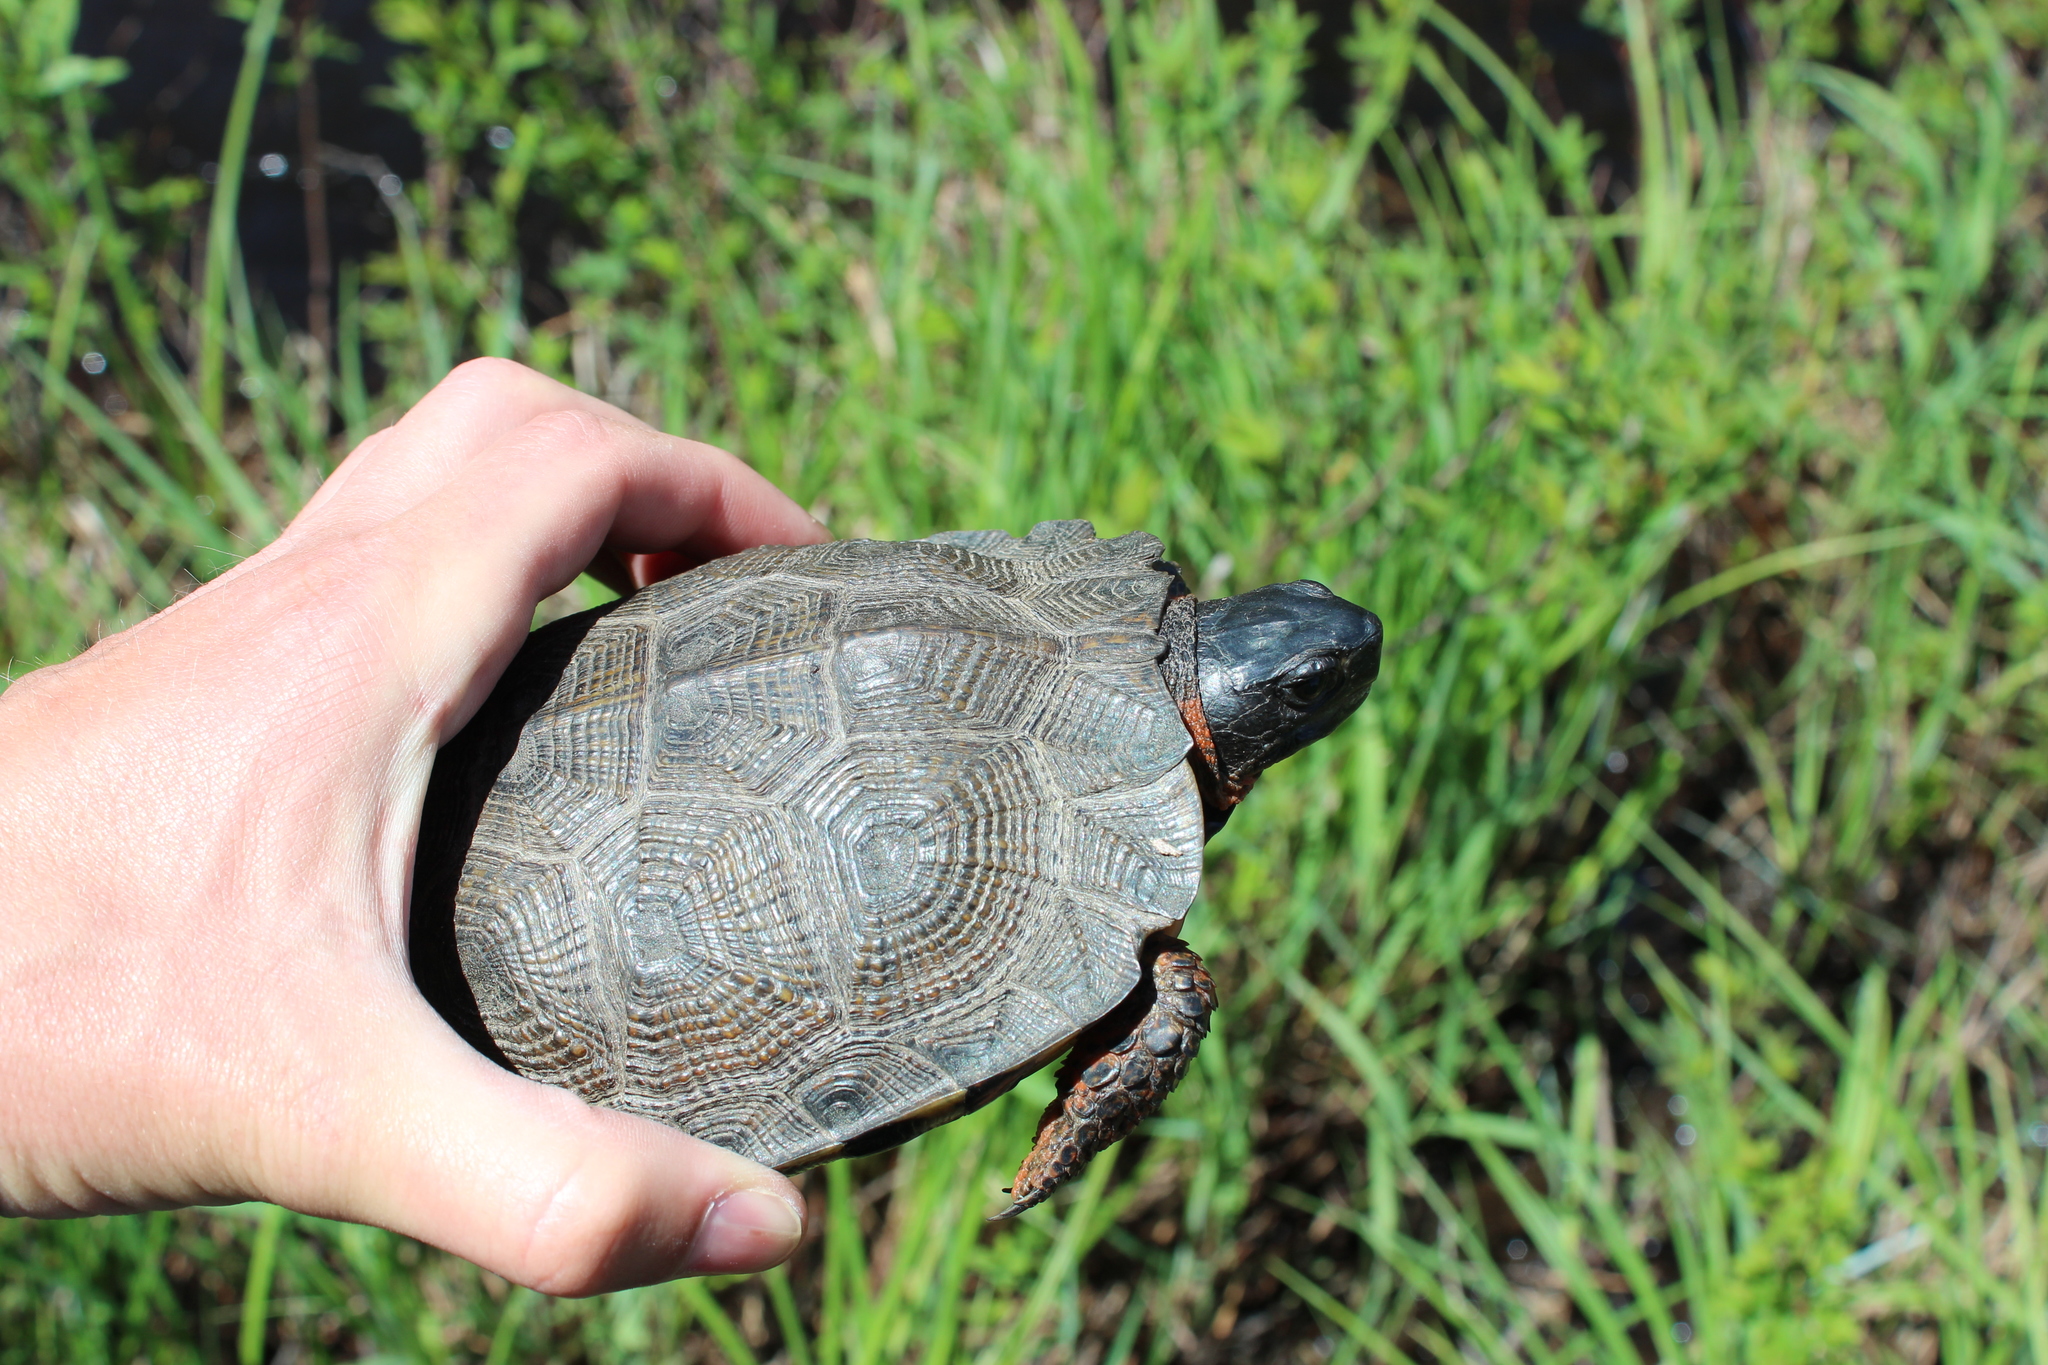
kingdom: Animalia
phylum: Chordata
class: Testudines
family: Emydidae
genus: Glyptemys
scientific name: Glyptemys insculpta
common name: Wood turtle
